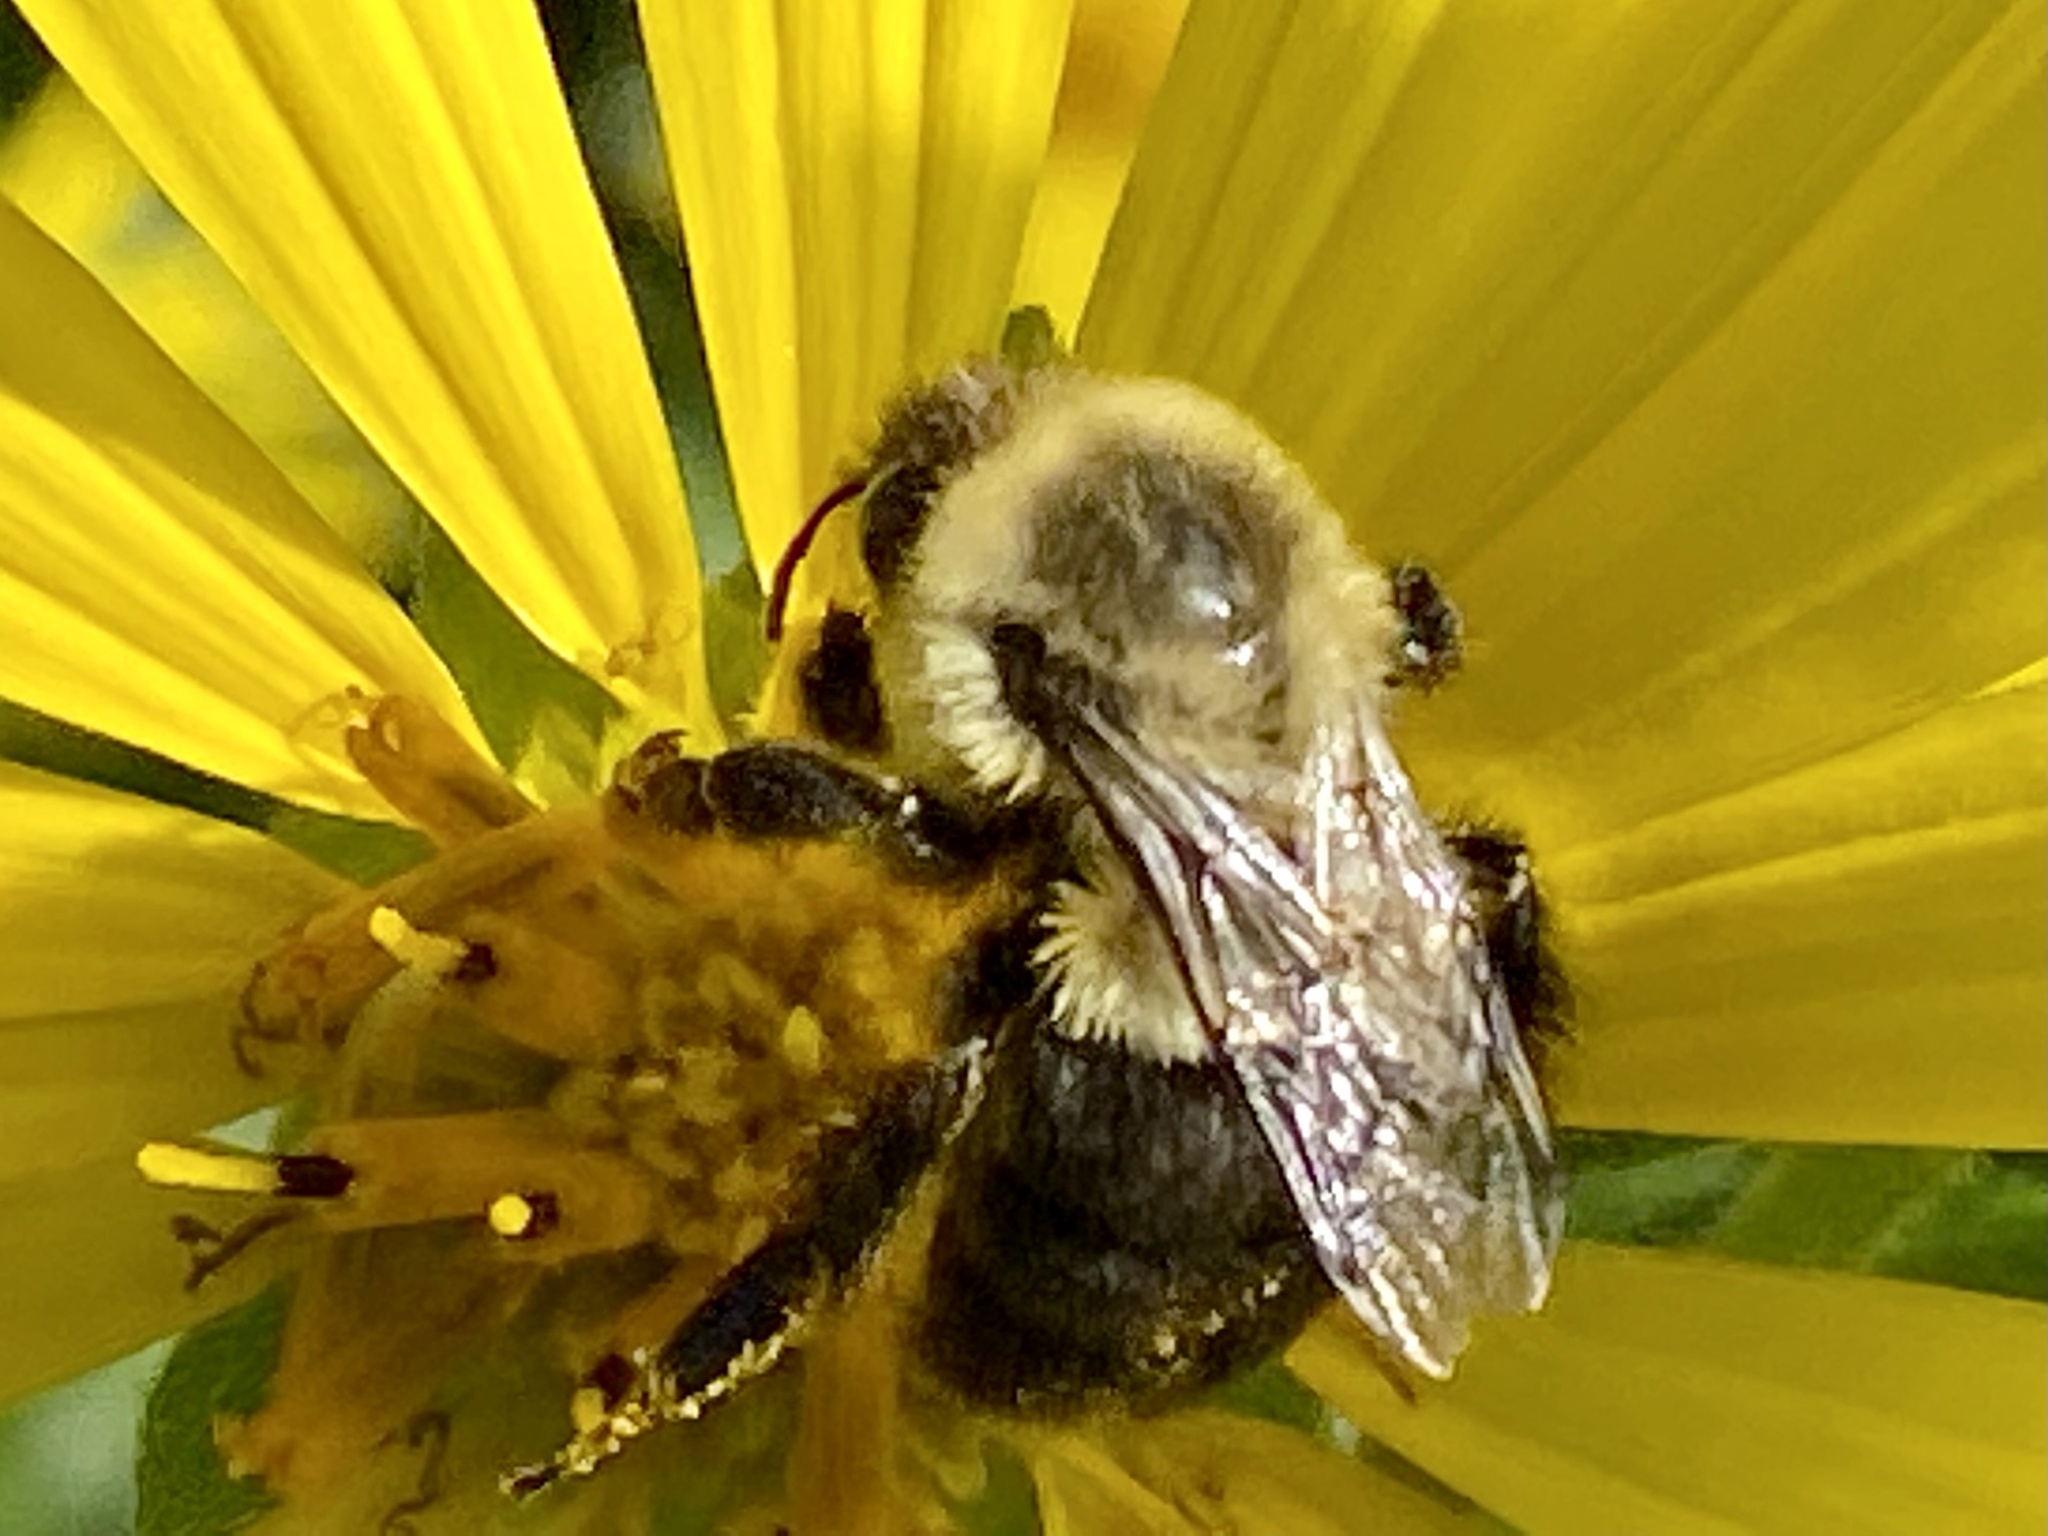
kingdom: Animalia
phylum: Arthropoda
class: Insecta
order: Hymenoptera
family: Apidae
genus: Bombus
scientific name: Bombus impatiens
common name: Common eastern bumble bee
